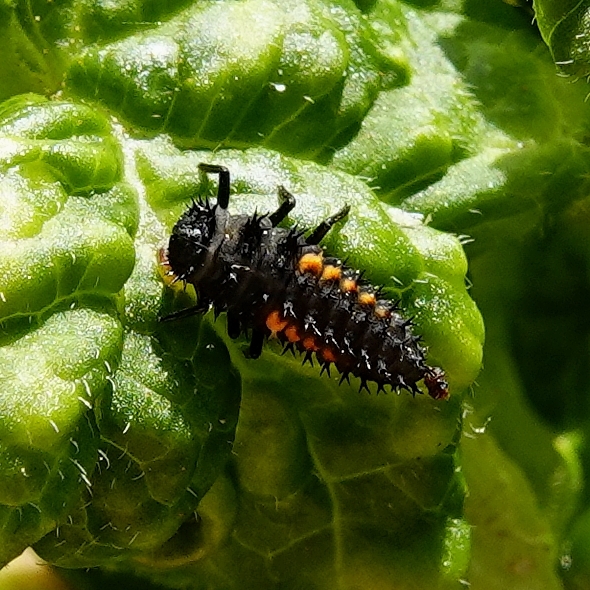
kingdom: Animalia
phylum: Arthropoda
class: Insecta
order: Coleoptera
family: Coccinellidae
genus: Harmonia
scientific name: Harmonia axyridis
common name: Harlequin ladybird
